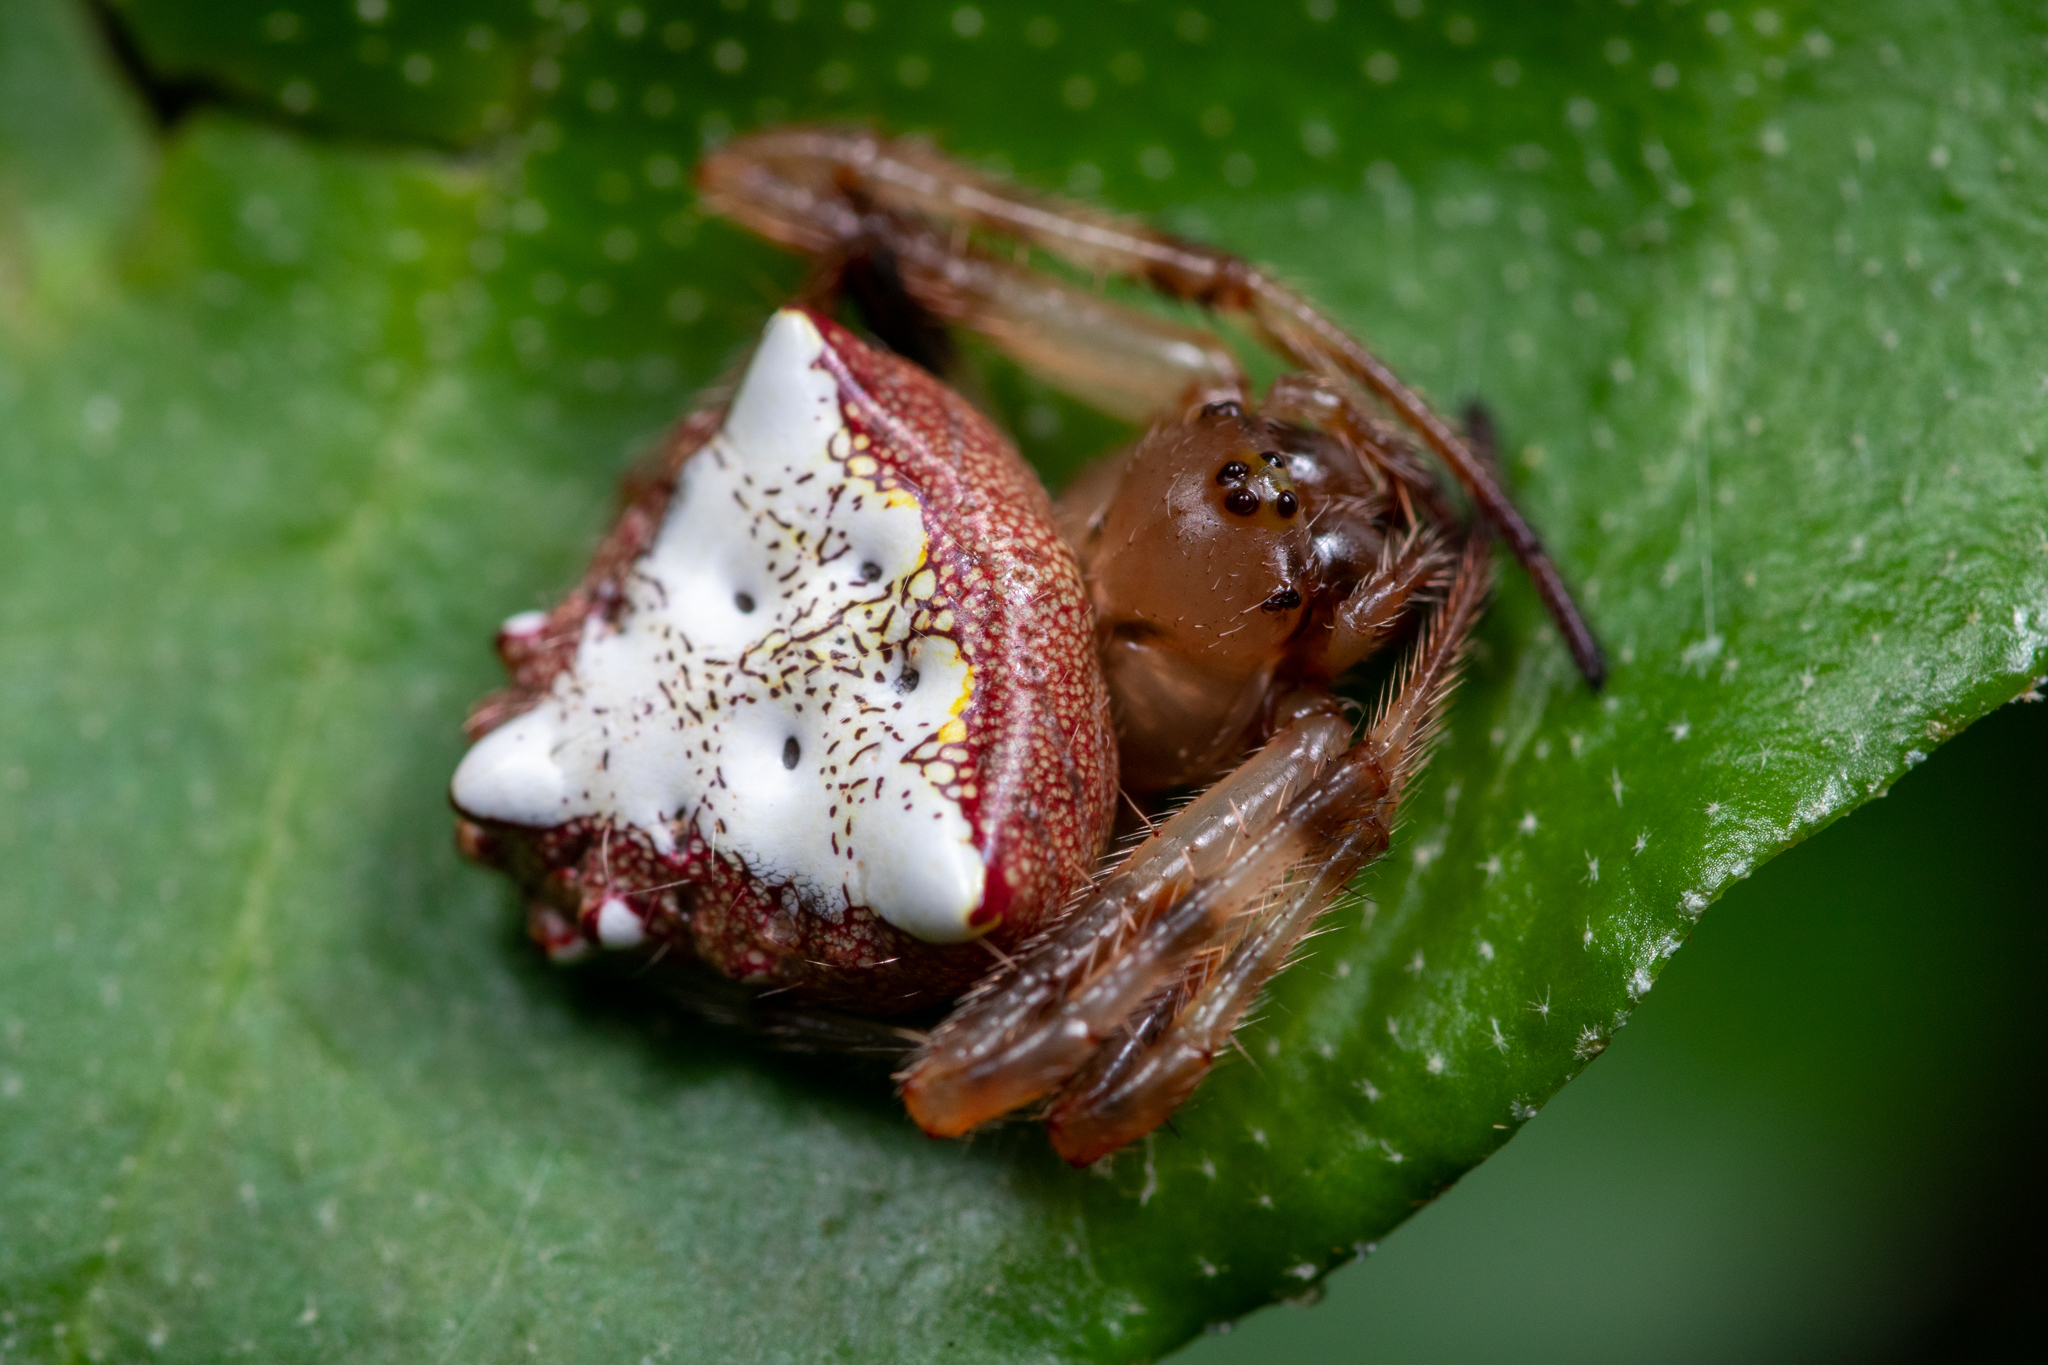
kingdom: Animalia
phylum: Arthropoda
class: Arachnida
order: Araneae
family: Araneidae
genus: Verrucosa
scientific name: Verrucosa arenata
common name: Orb weavers
